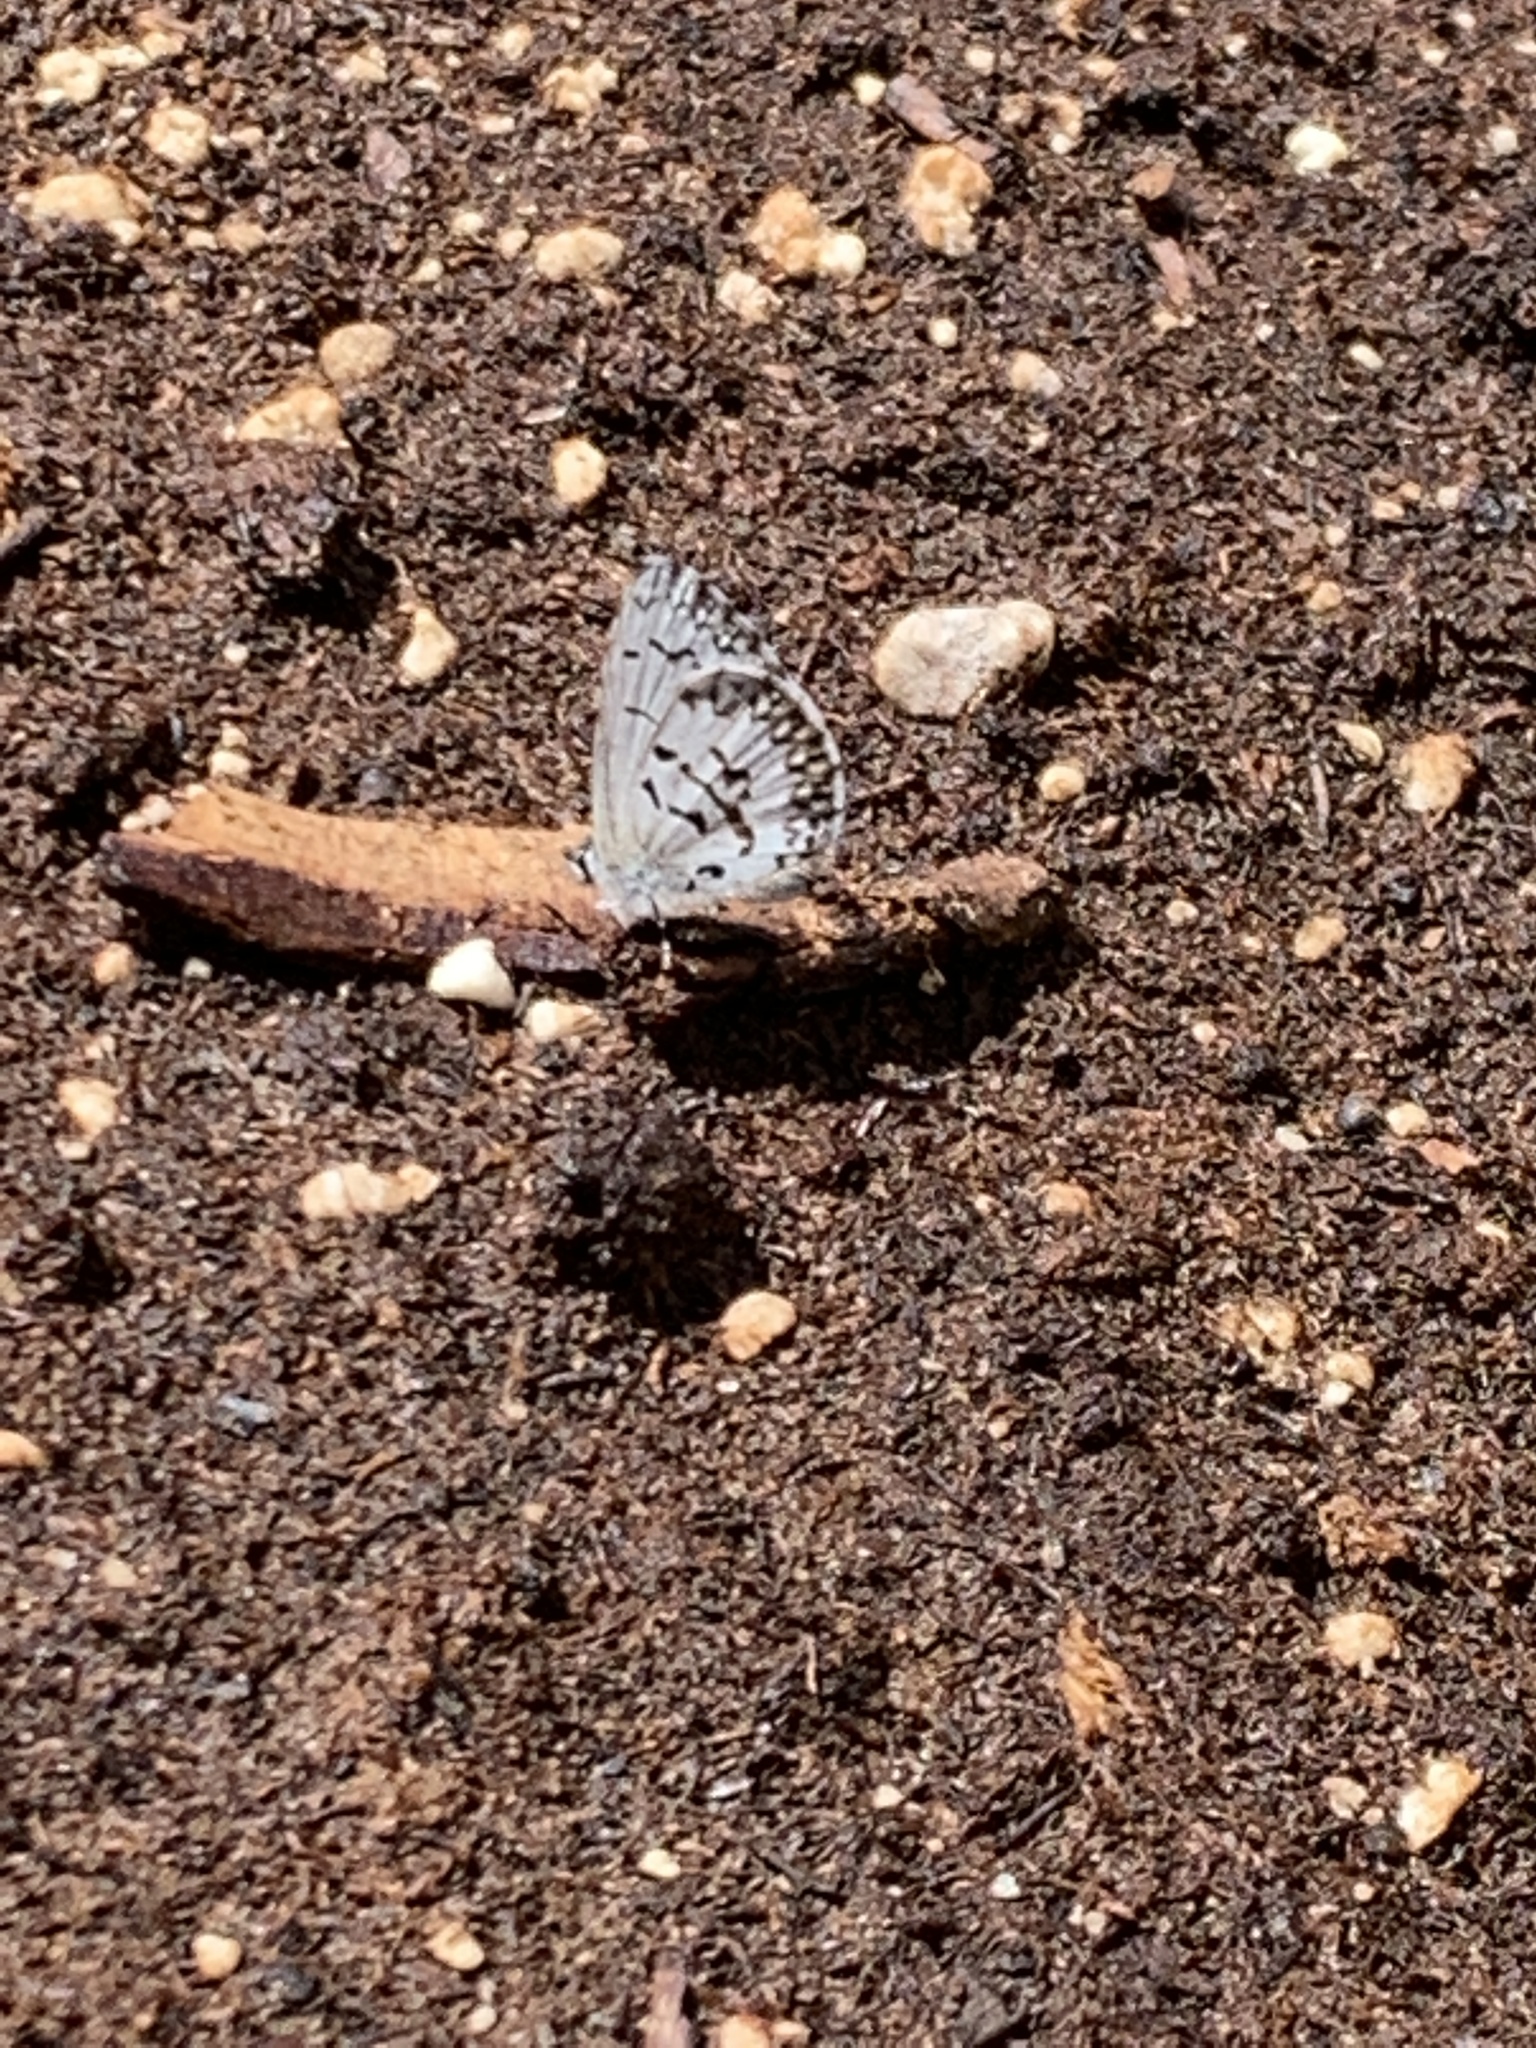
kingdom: Animalia
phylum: Arthropoda
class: Insecta
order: Lepidoptera
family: Lycaenidae
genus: Celastrina
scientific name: Celastrina lucia
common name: Lucia azure
